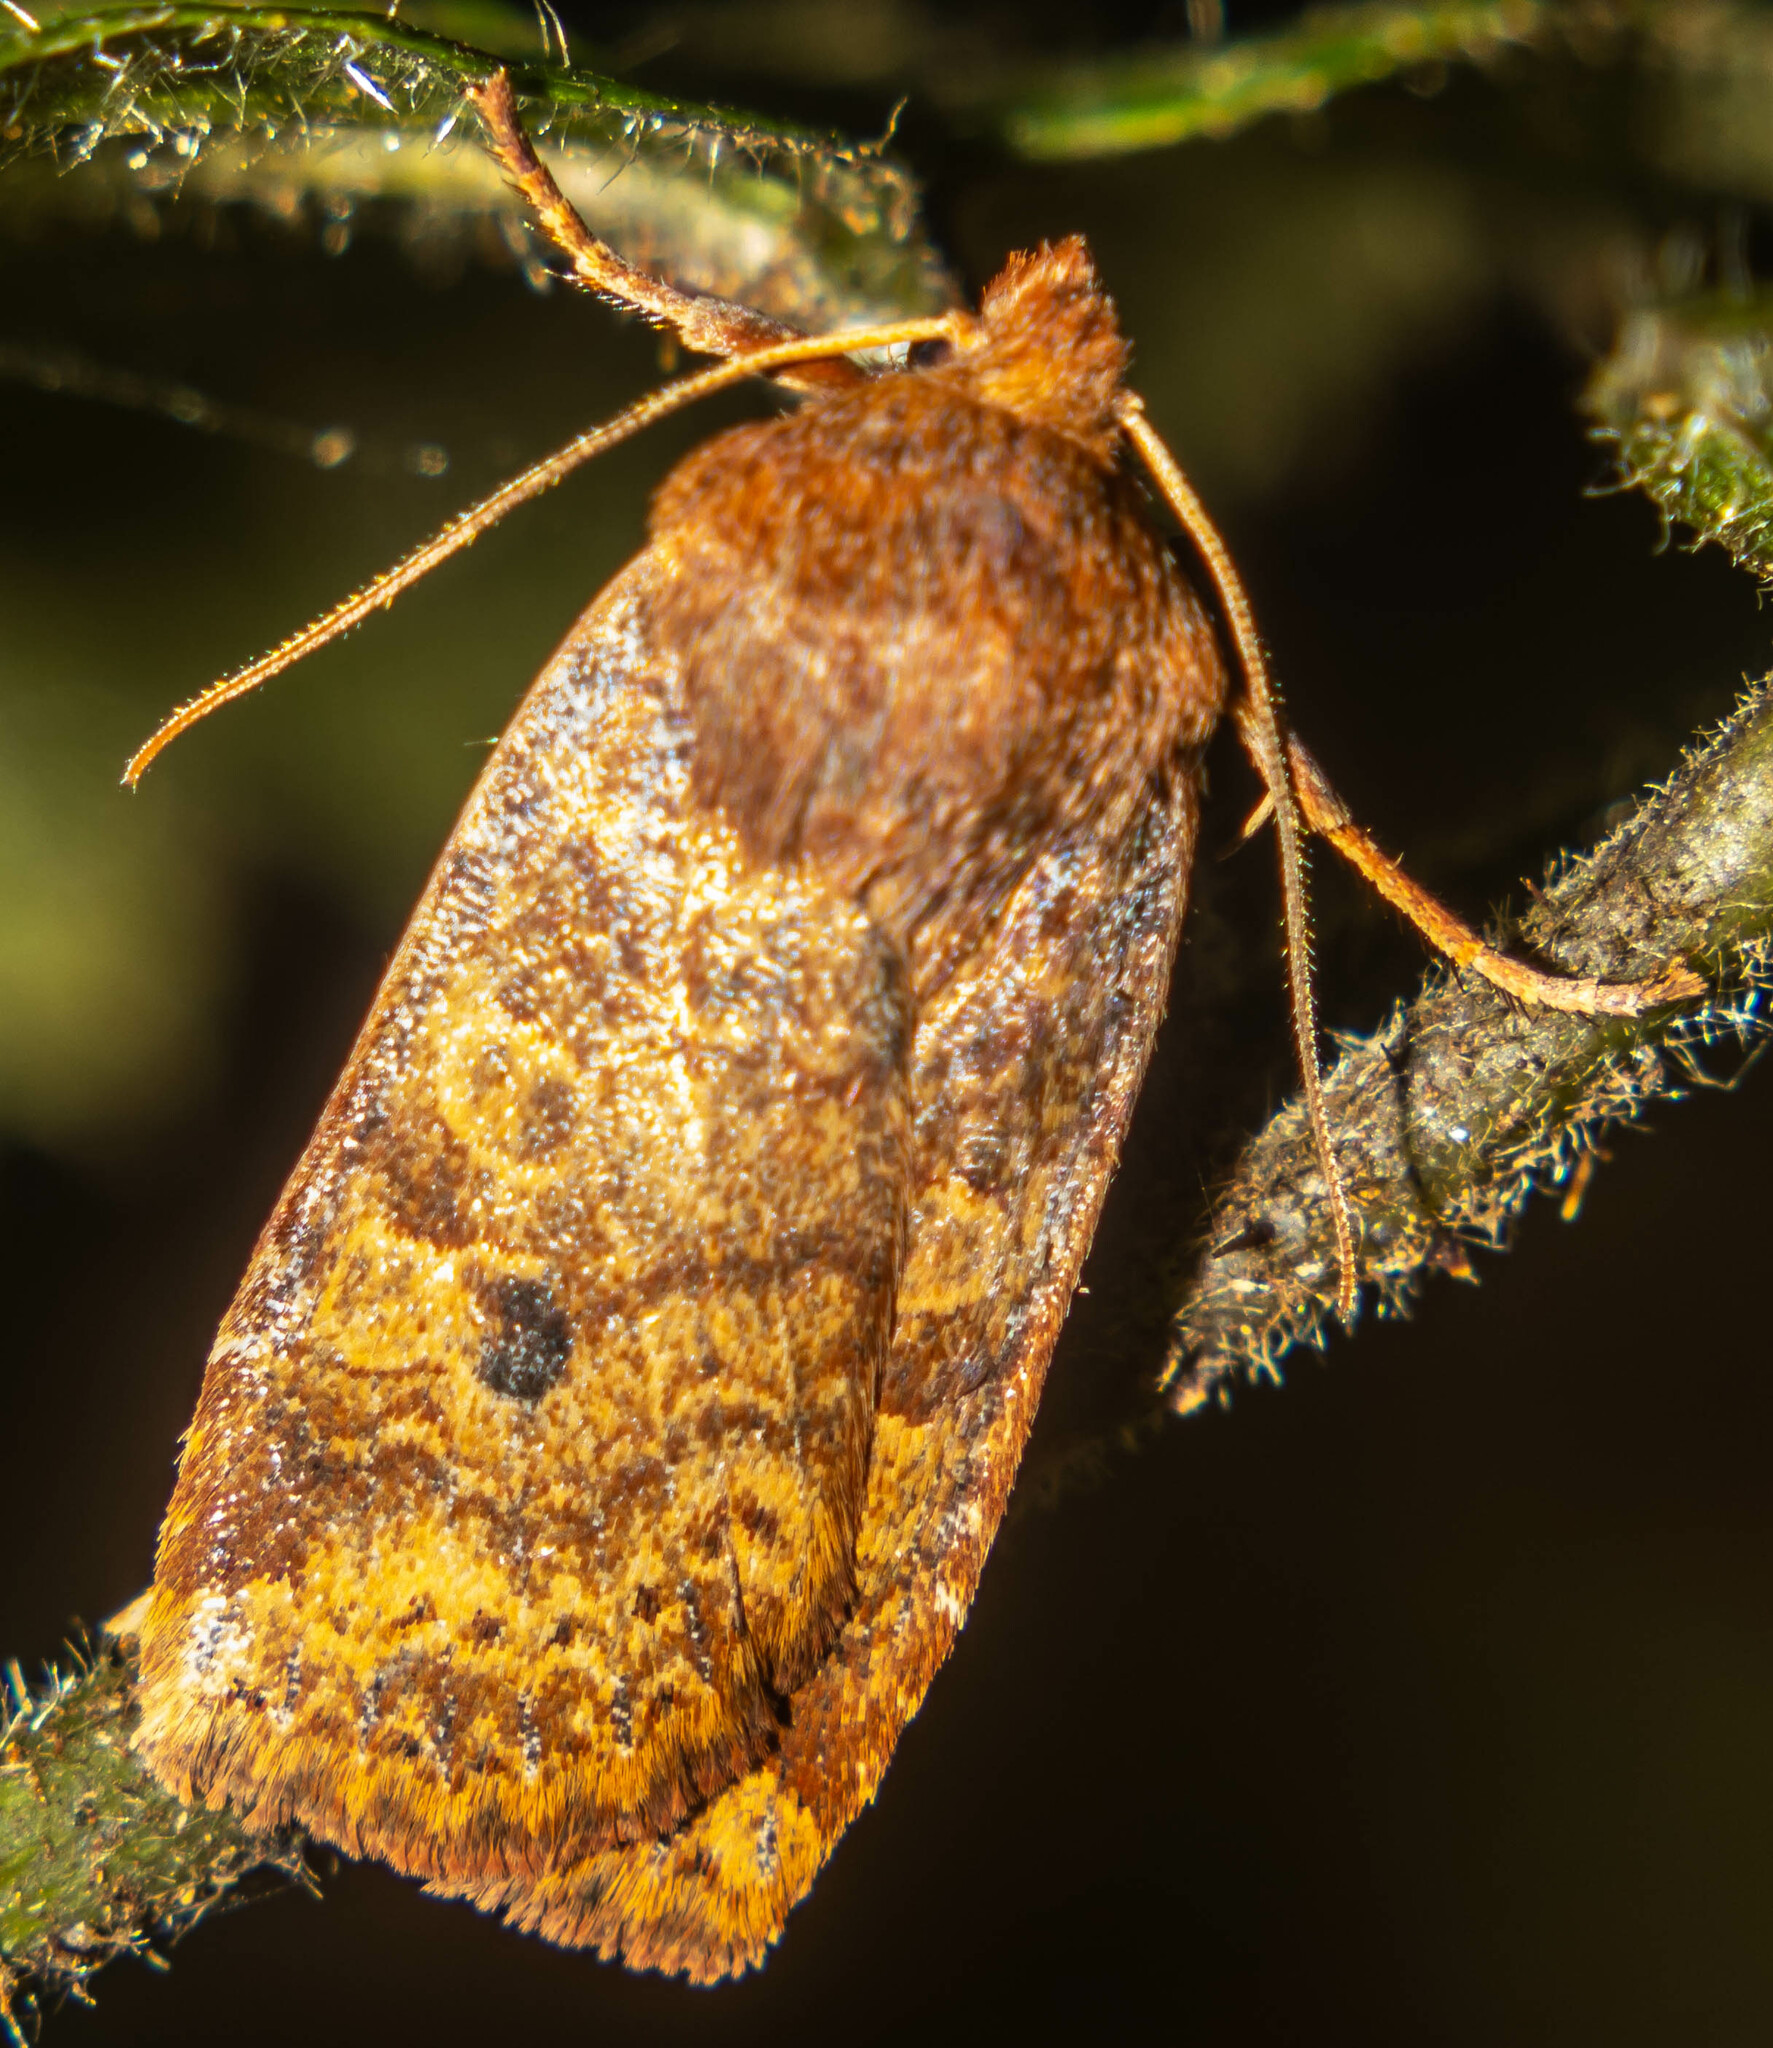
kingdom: Animalia
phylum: Arthropoda
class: Insecta
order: Lepidoptera
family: Noctuidae
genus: Conistra
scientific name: Conistra vaccinii
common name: Chestnut
